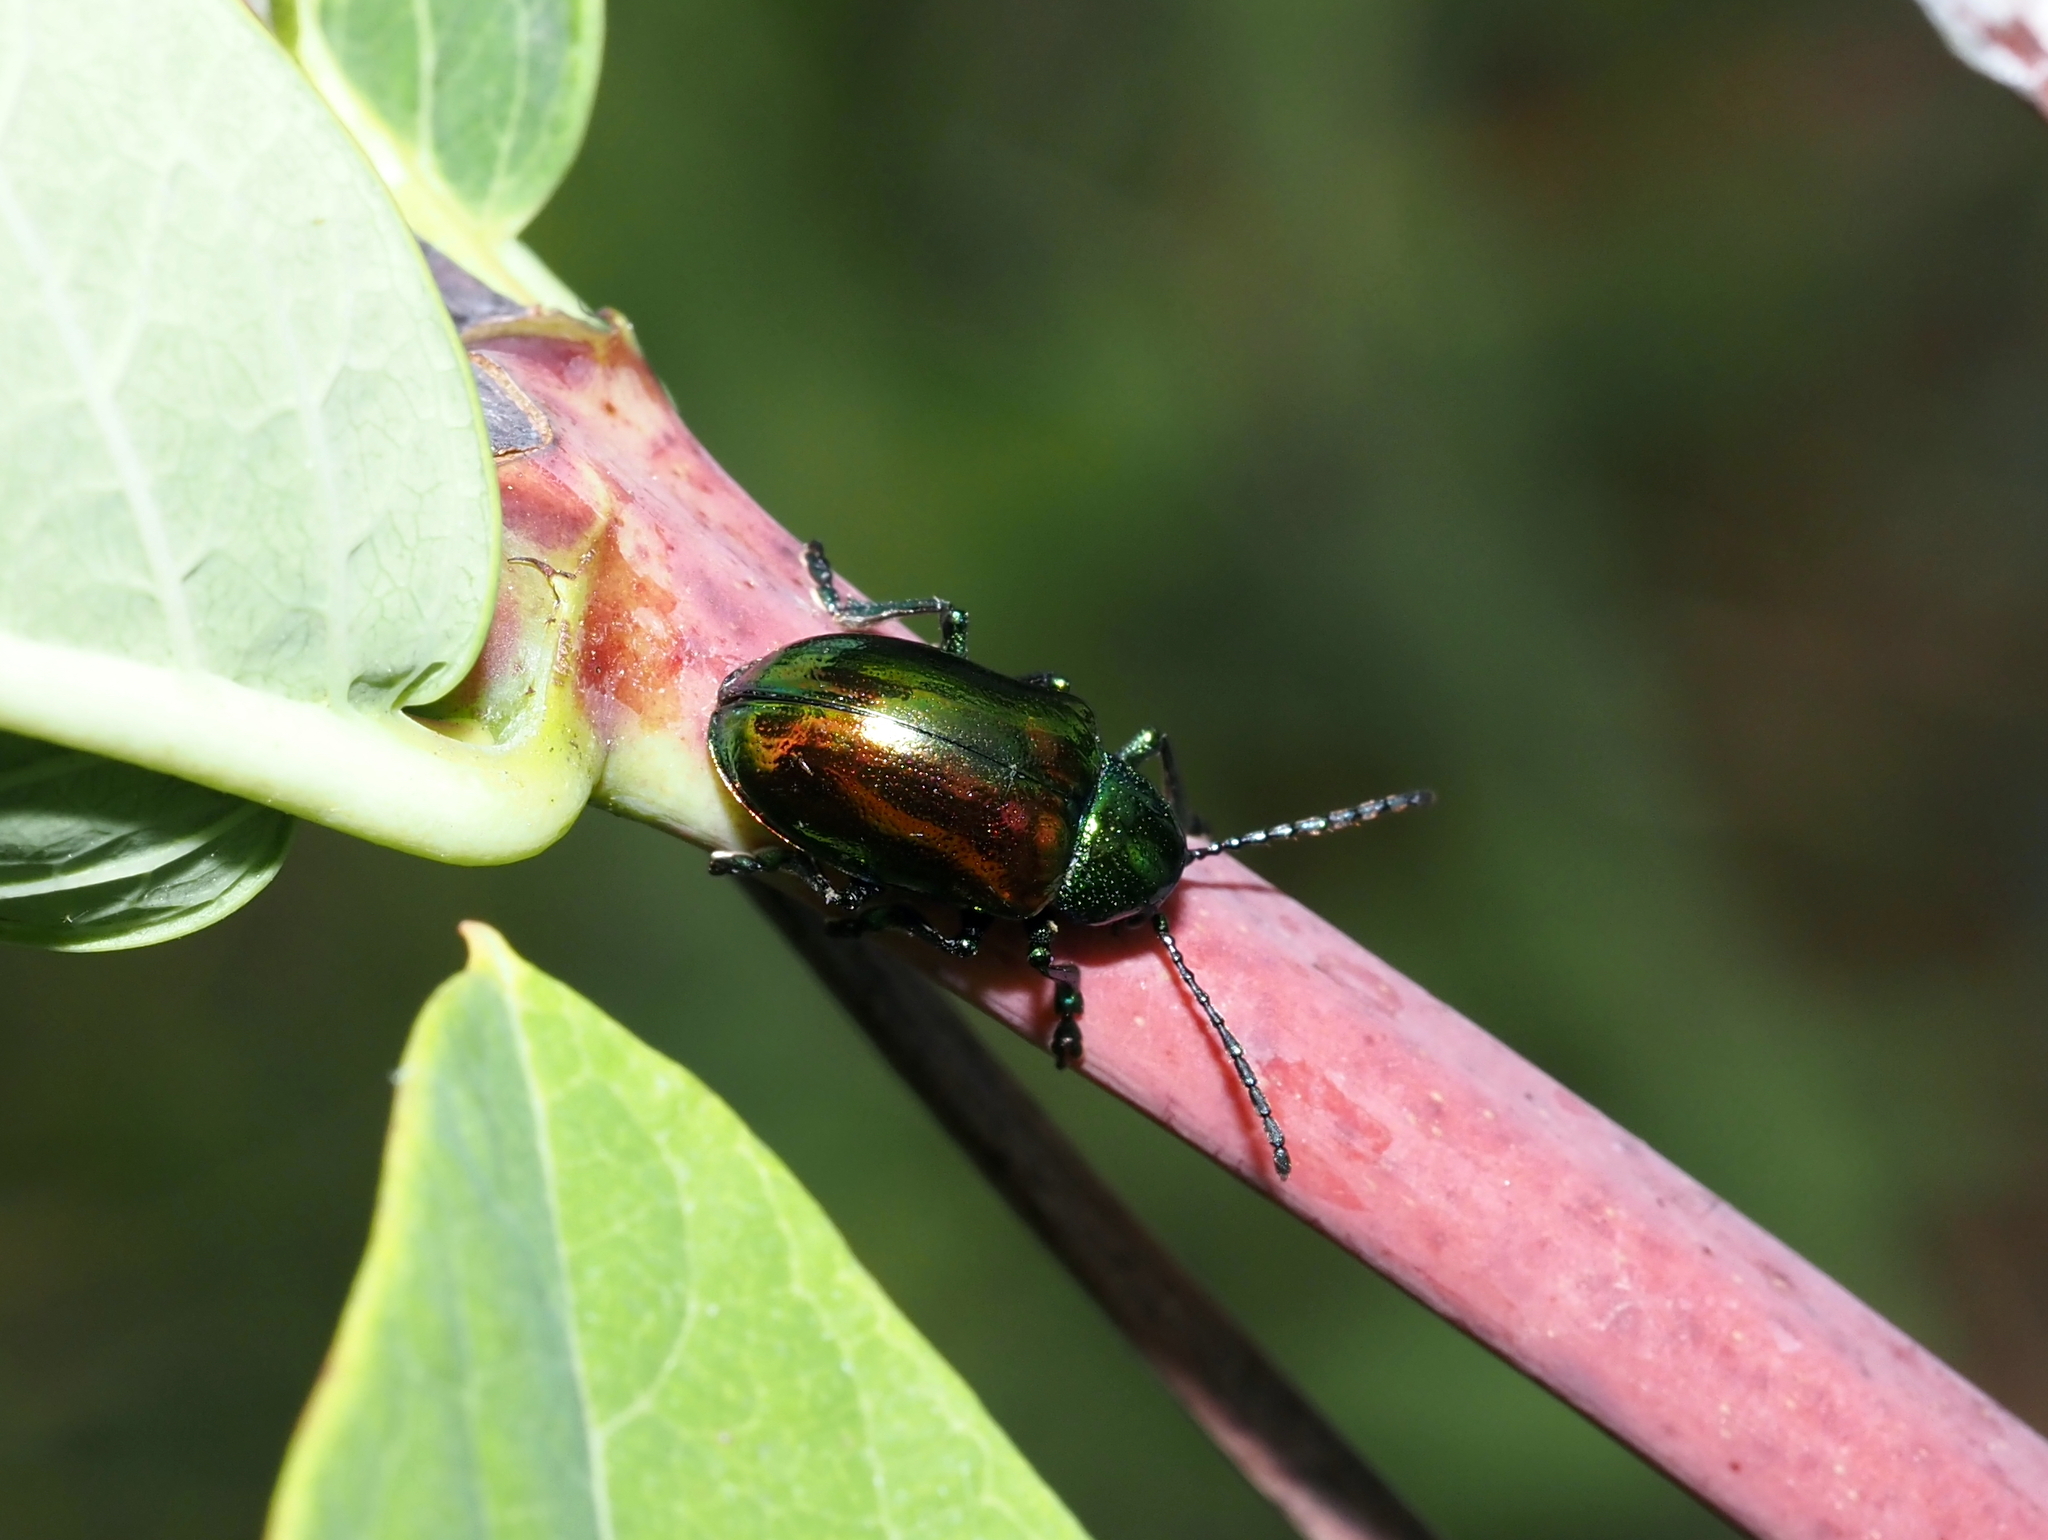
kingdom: Animalia
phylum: Arthropoda
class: Insecta
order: Coleoptera
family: Chrysomelidae
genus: Chrysochus
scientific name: Chrysochus auratus
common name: Dogbane leaf beetle
